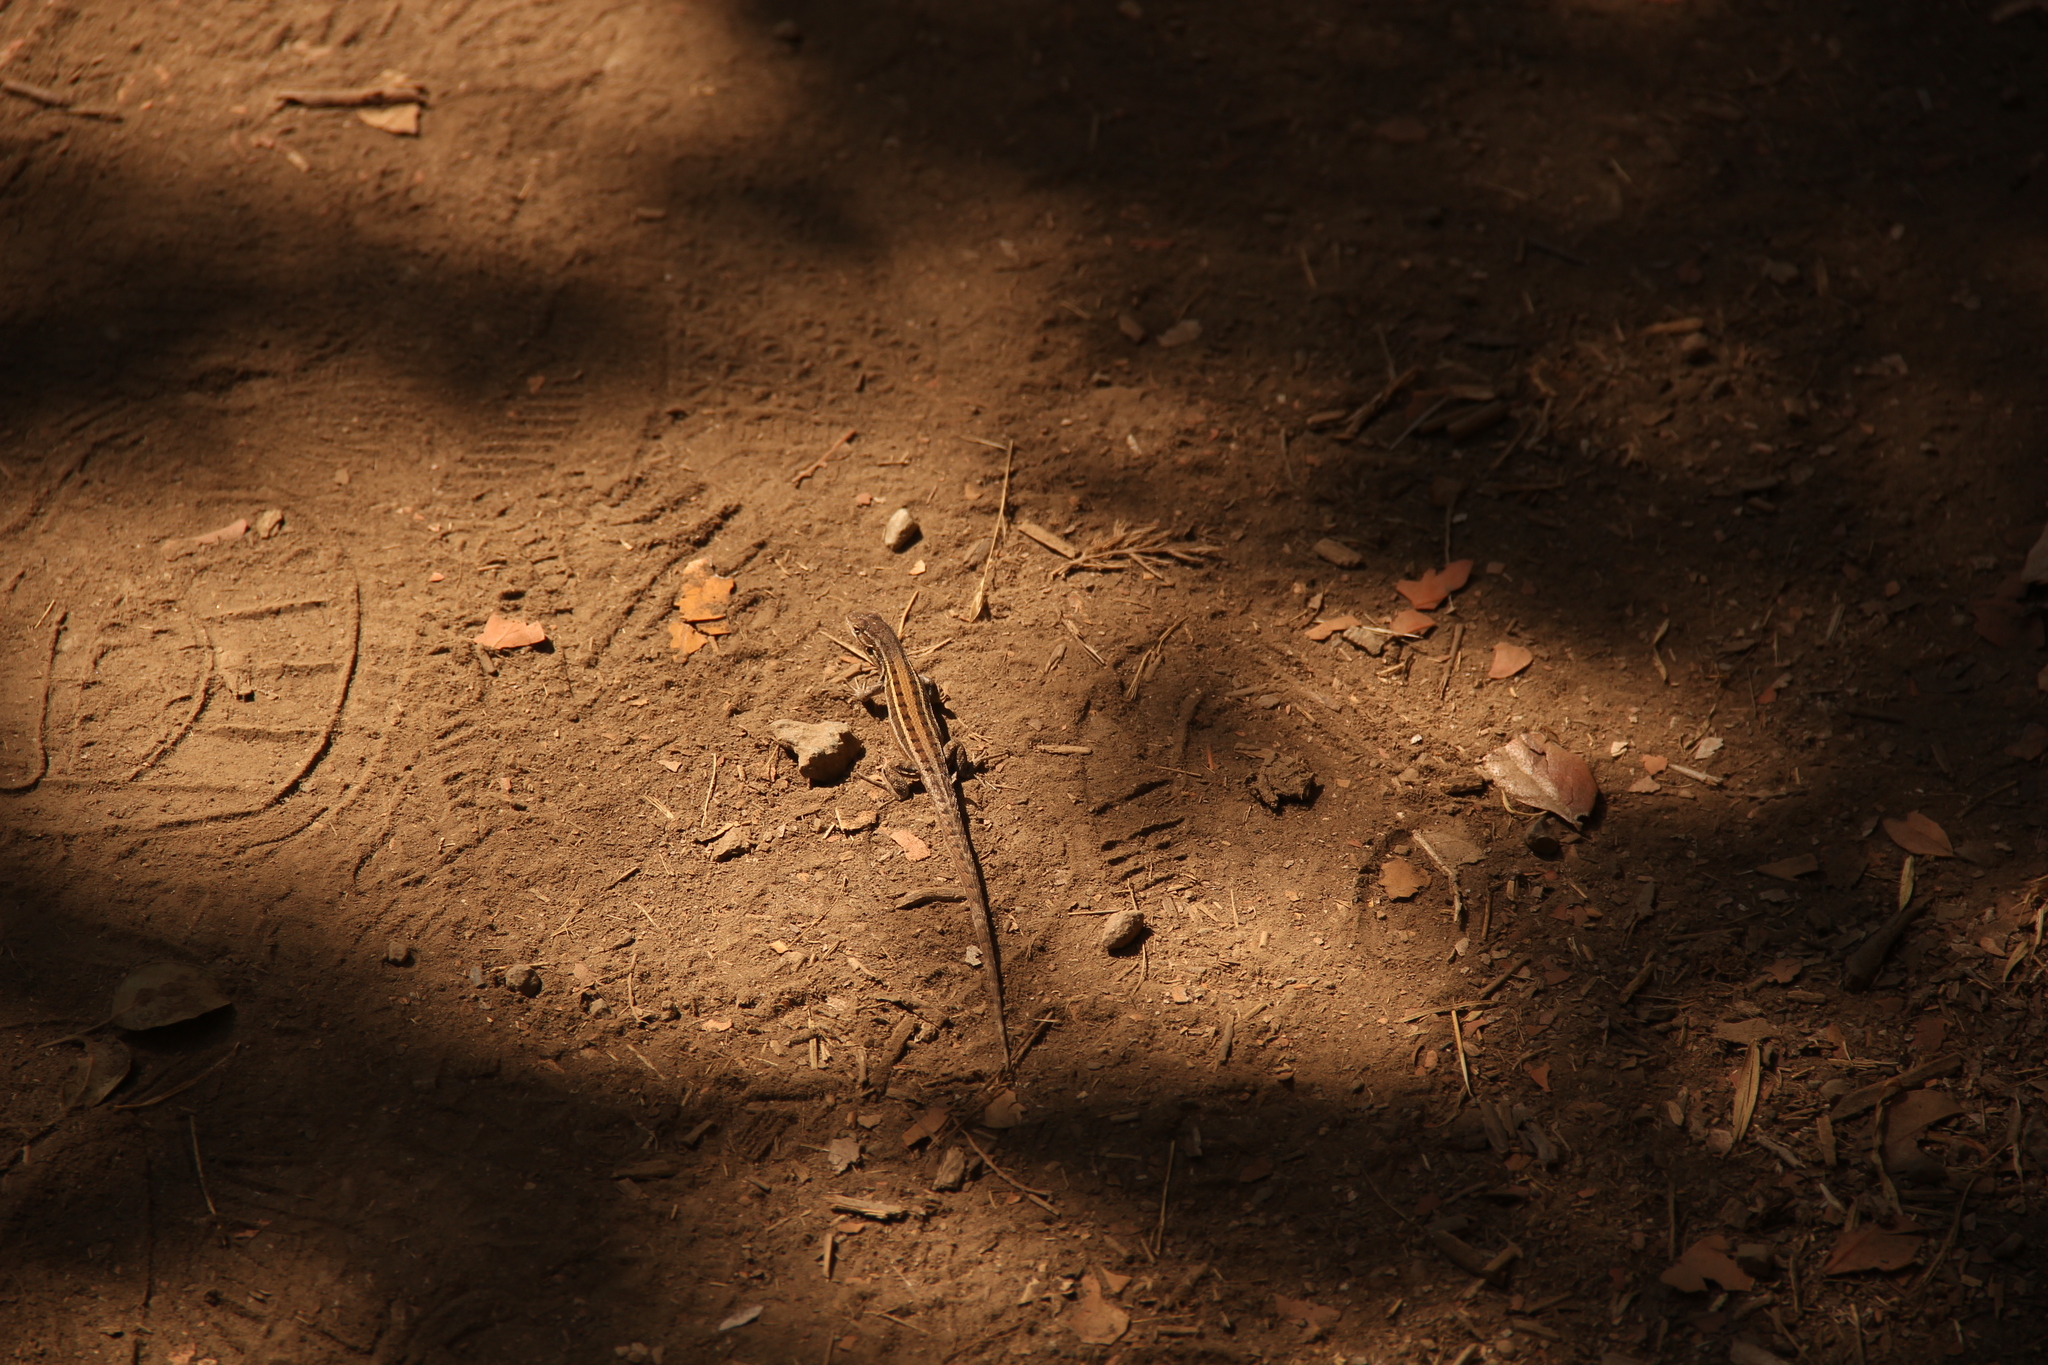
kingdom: Animalia
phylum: Chordata
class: Squamata
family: Liolaemidae
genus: Liolaemus
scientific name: Liolaemus lemniscatus
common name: Wreath tree iguana
